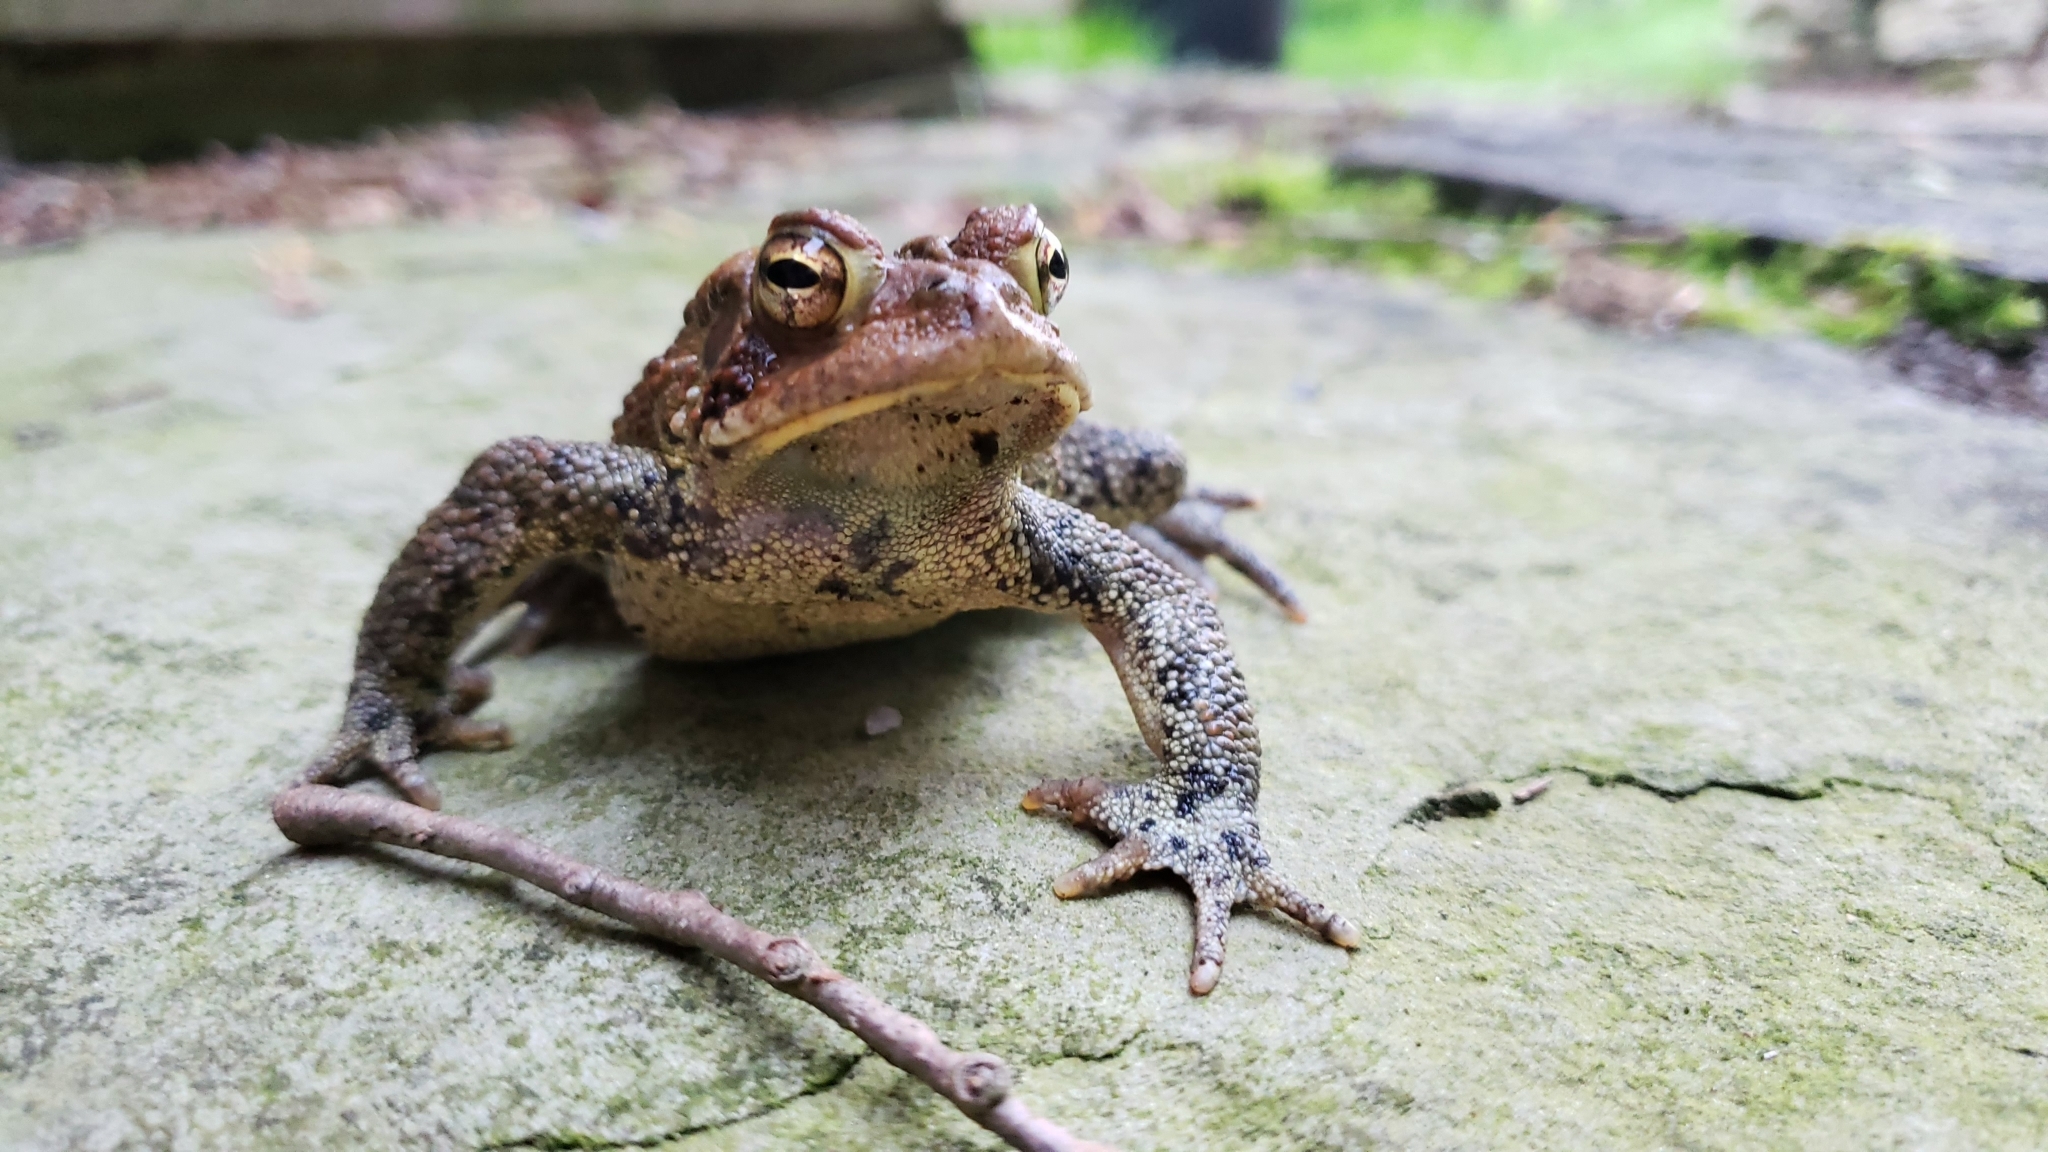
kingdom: Animalia
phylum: Chordata
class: Amphibia
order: Anura
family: Bufonidae
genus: Anaxyrus
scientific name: Anaxyrus americanus
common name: American toad
